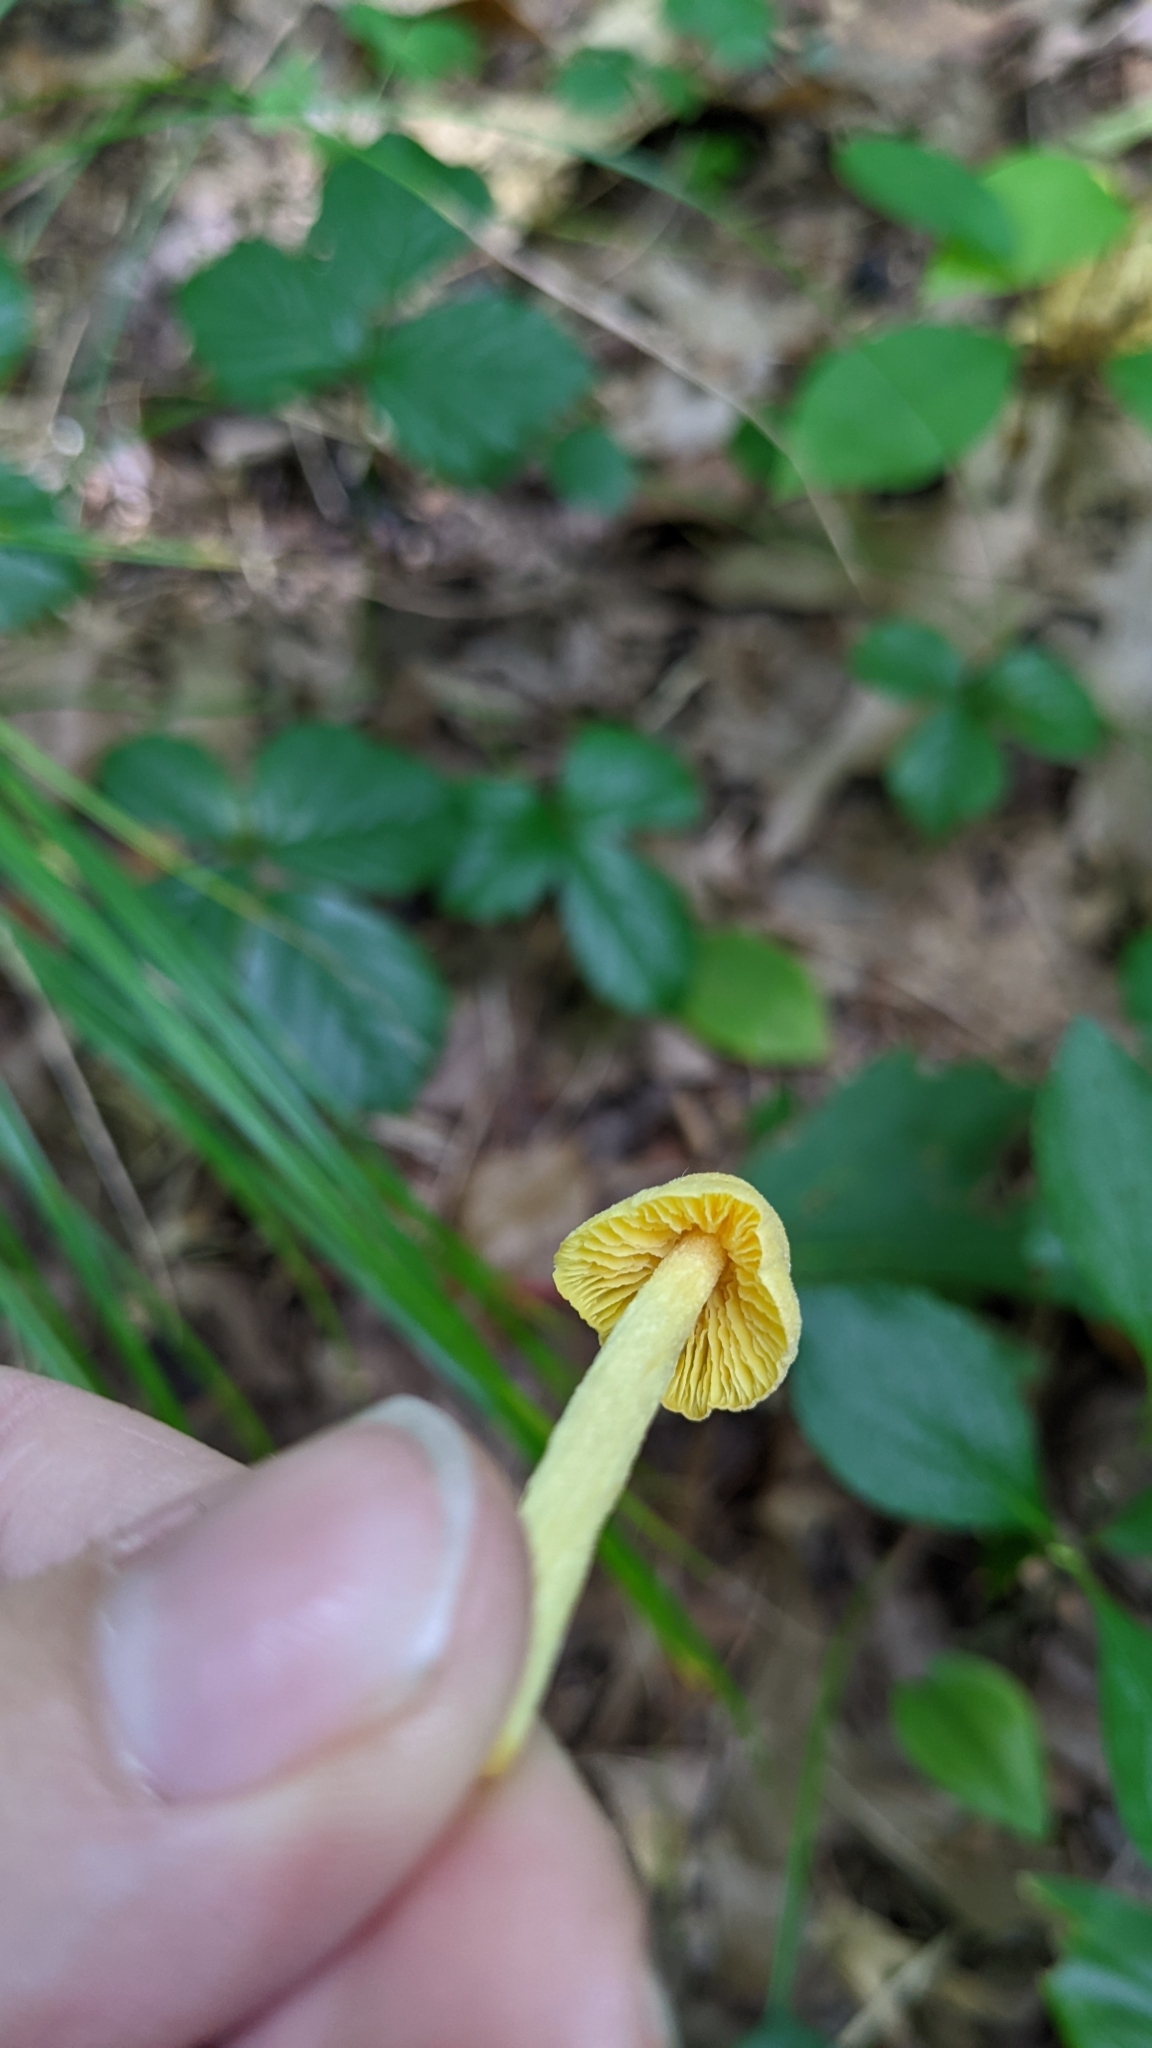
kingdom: Fungi
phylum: Basidiomycota
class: Agaricomycetes
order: Agaricales
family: Entolomataceae
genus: Entoloma
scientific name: Entoloma murrayi
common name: Yellow unicorn entoloma
